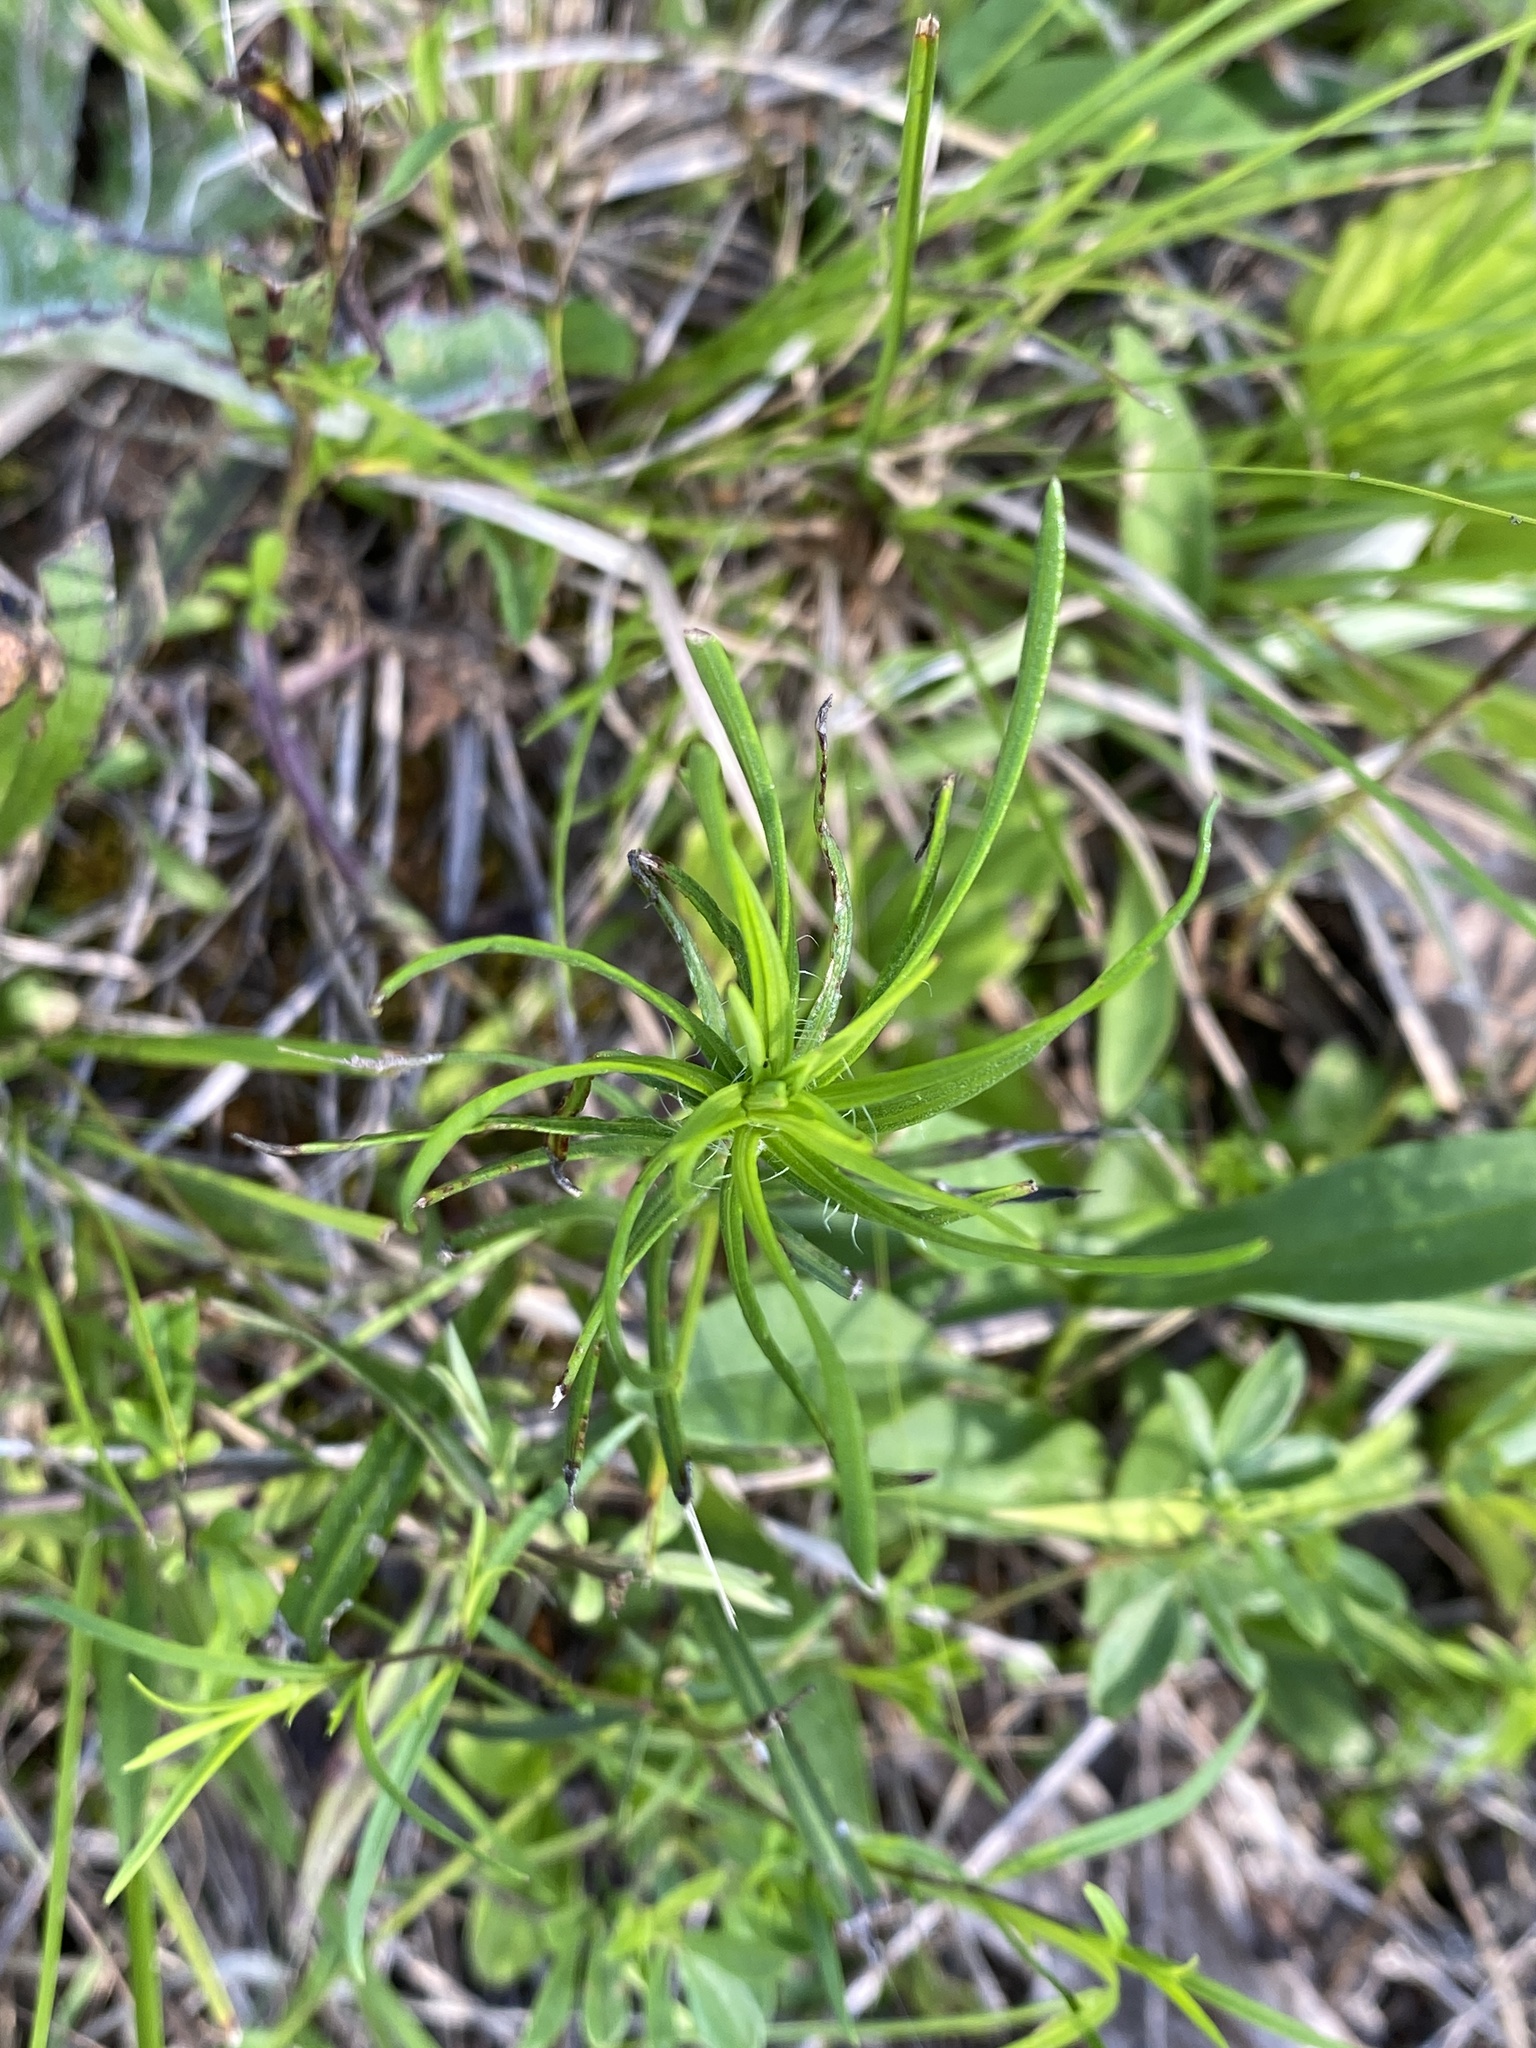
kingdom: Plantae
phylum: Tracheophyta
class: Magnoliopsida
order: Asterales
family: Asteraceae
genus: Liatris
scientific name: Liatris pilosa
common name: Grass-leaf gayfeather
